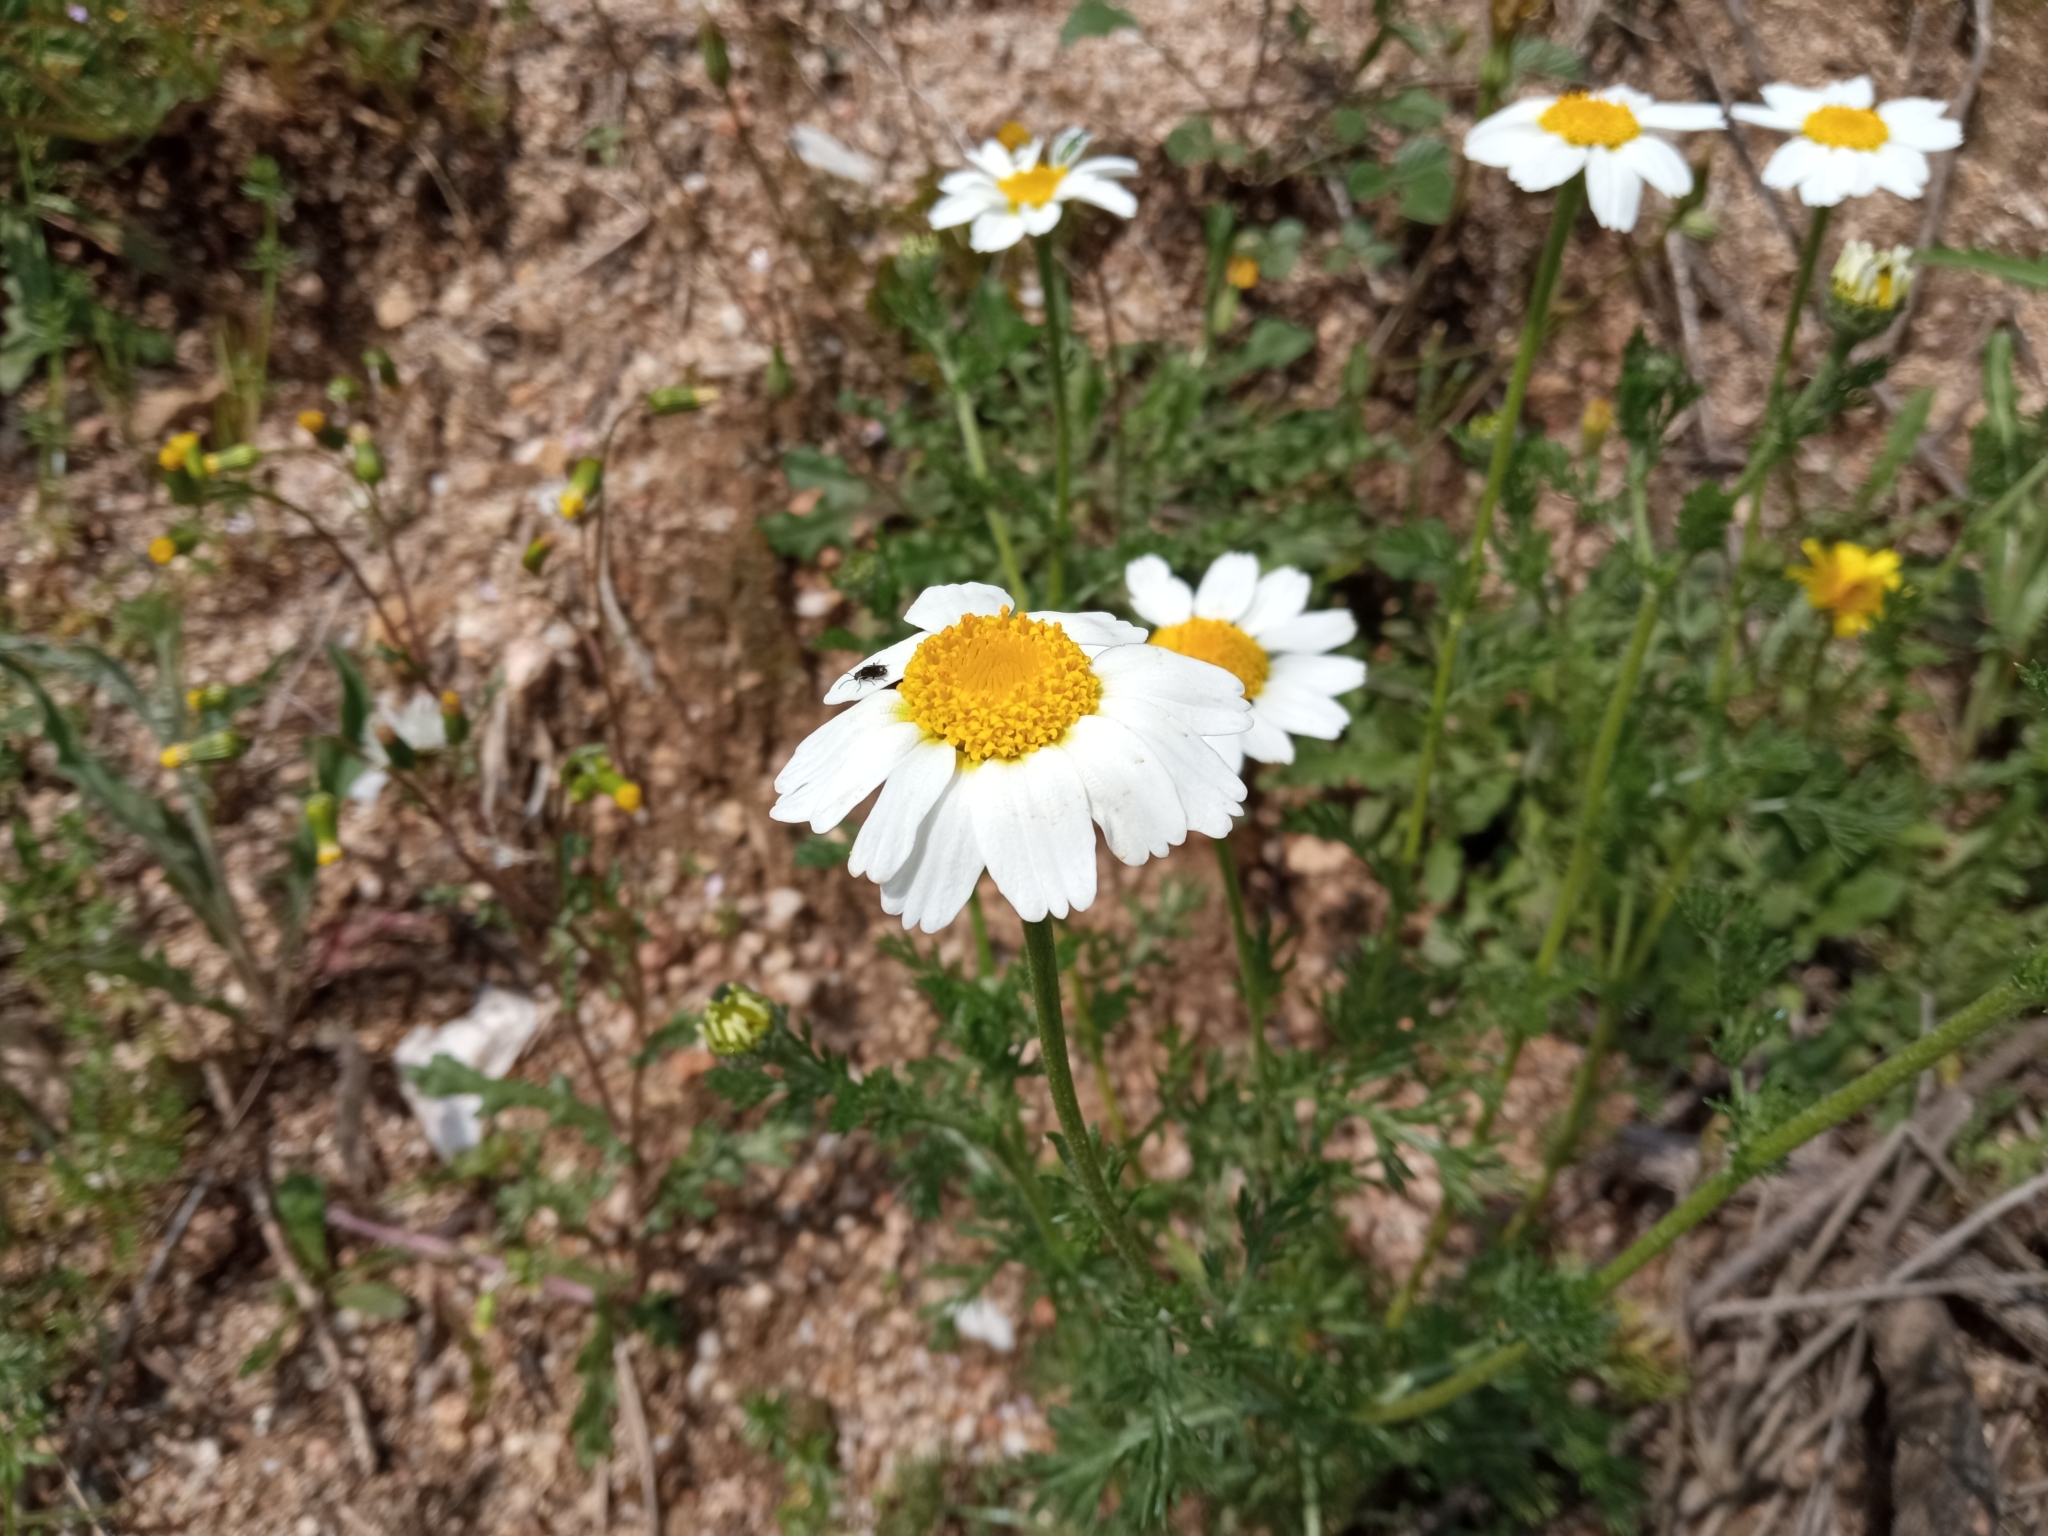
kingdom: Plantae
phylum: Tracheophyta
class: Magnoliopsida
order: Asterales
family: Asteraceae
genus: Anacyclus
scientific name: Anacyclus clavatus
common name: Whitebuttons
